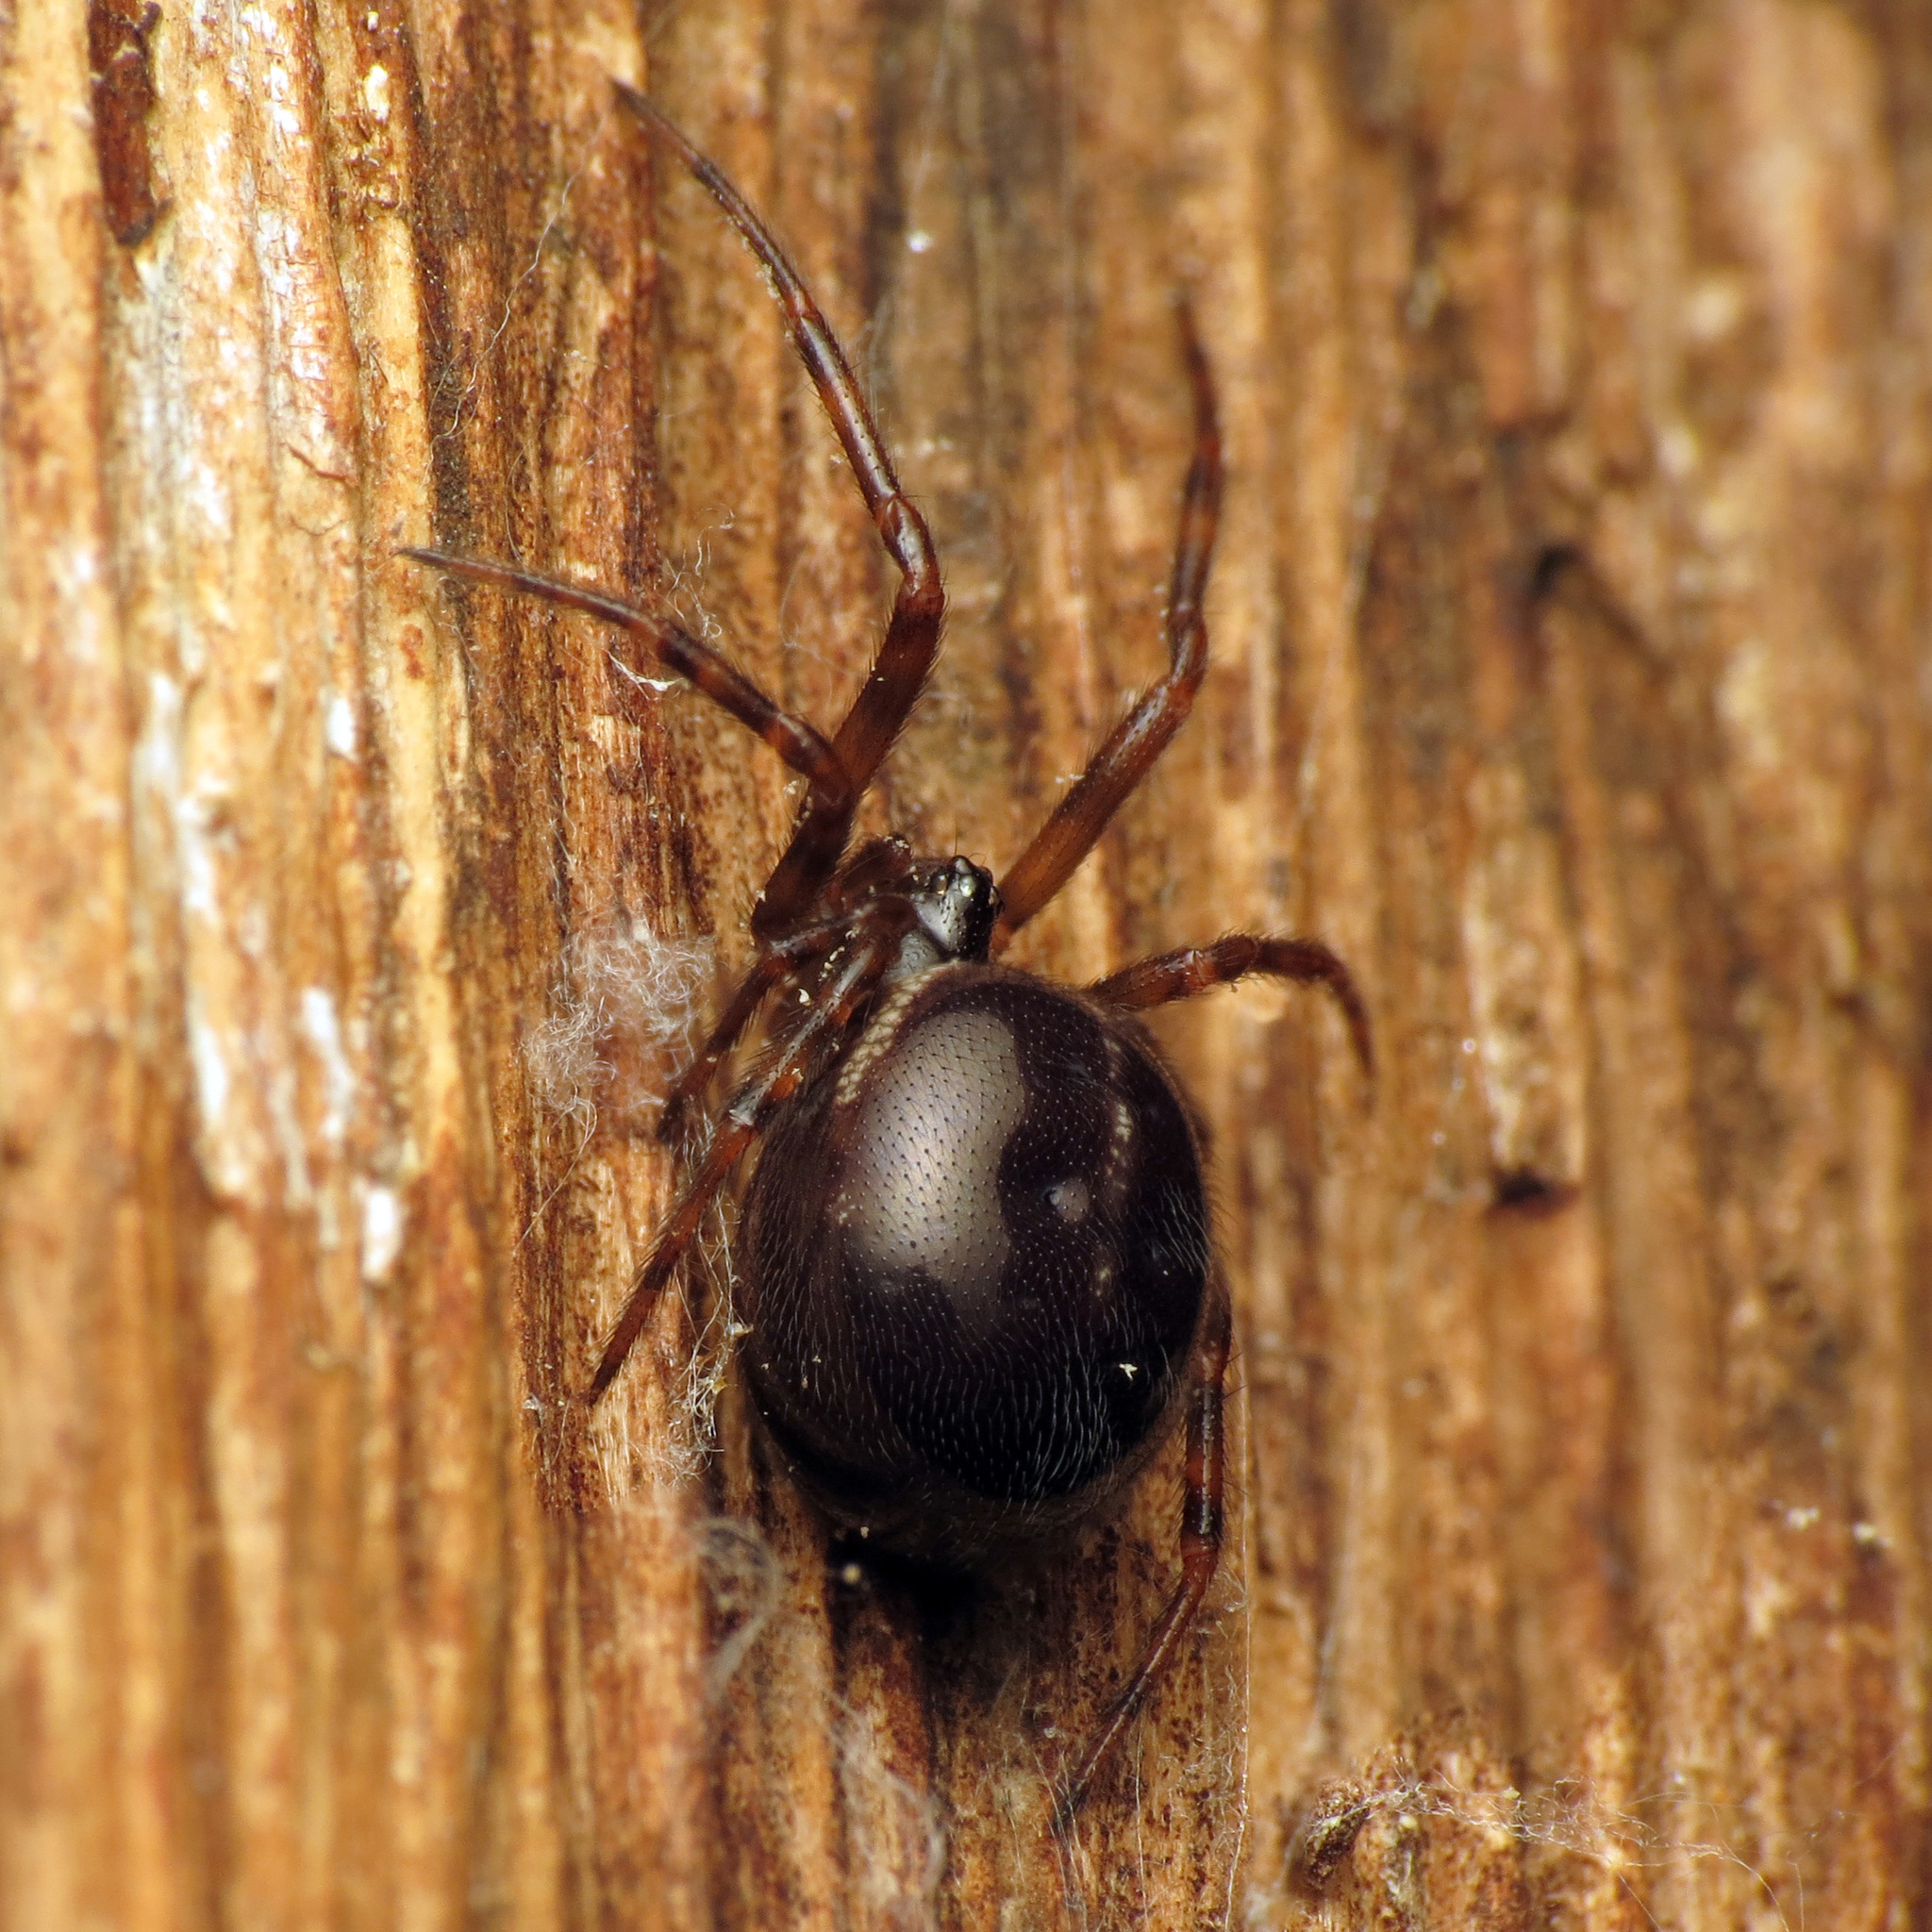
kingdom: Animalia
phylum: Arthropoda
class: Arachnida
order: Araneae
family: Theridiidae
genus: Steatoda
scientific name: Steatoda borealis
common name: Boreal combfoot
